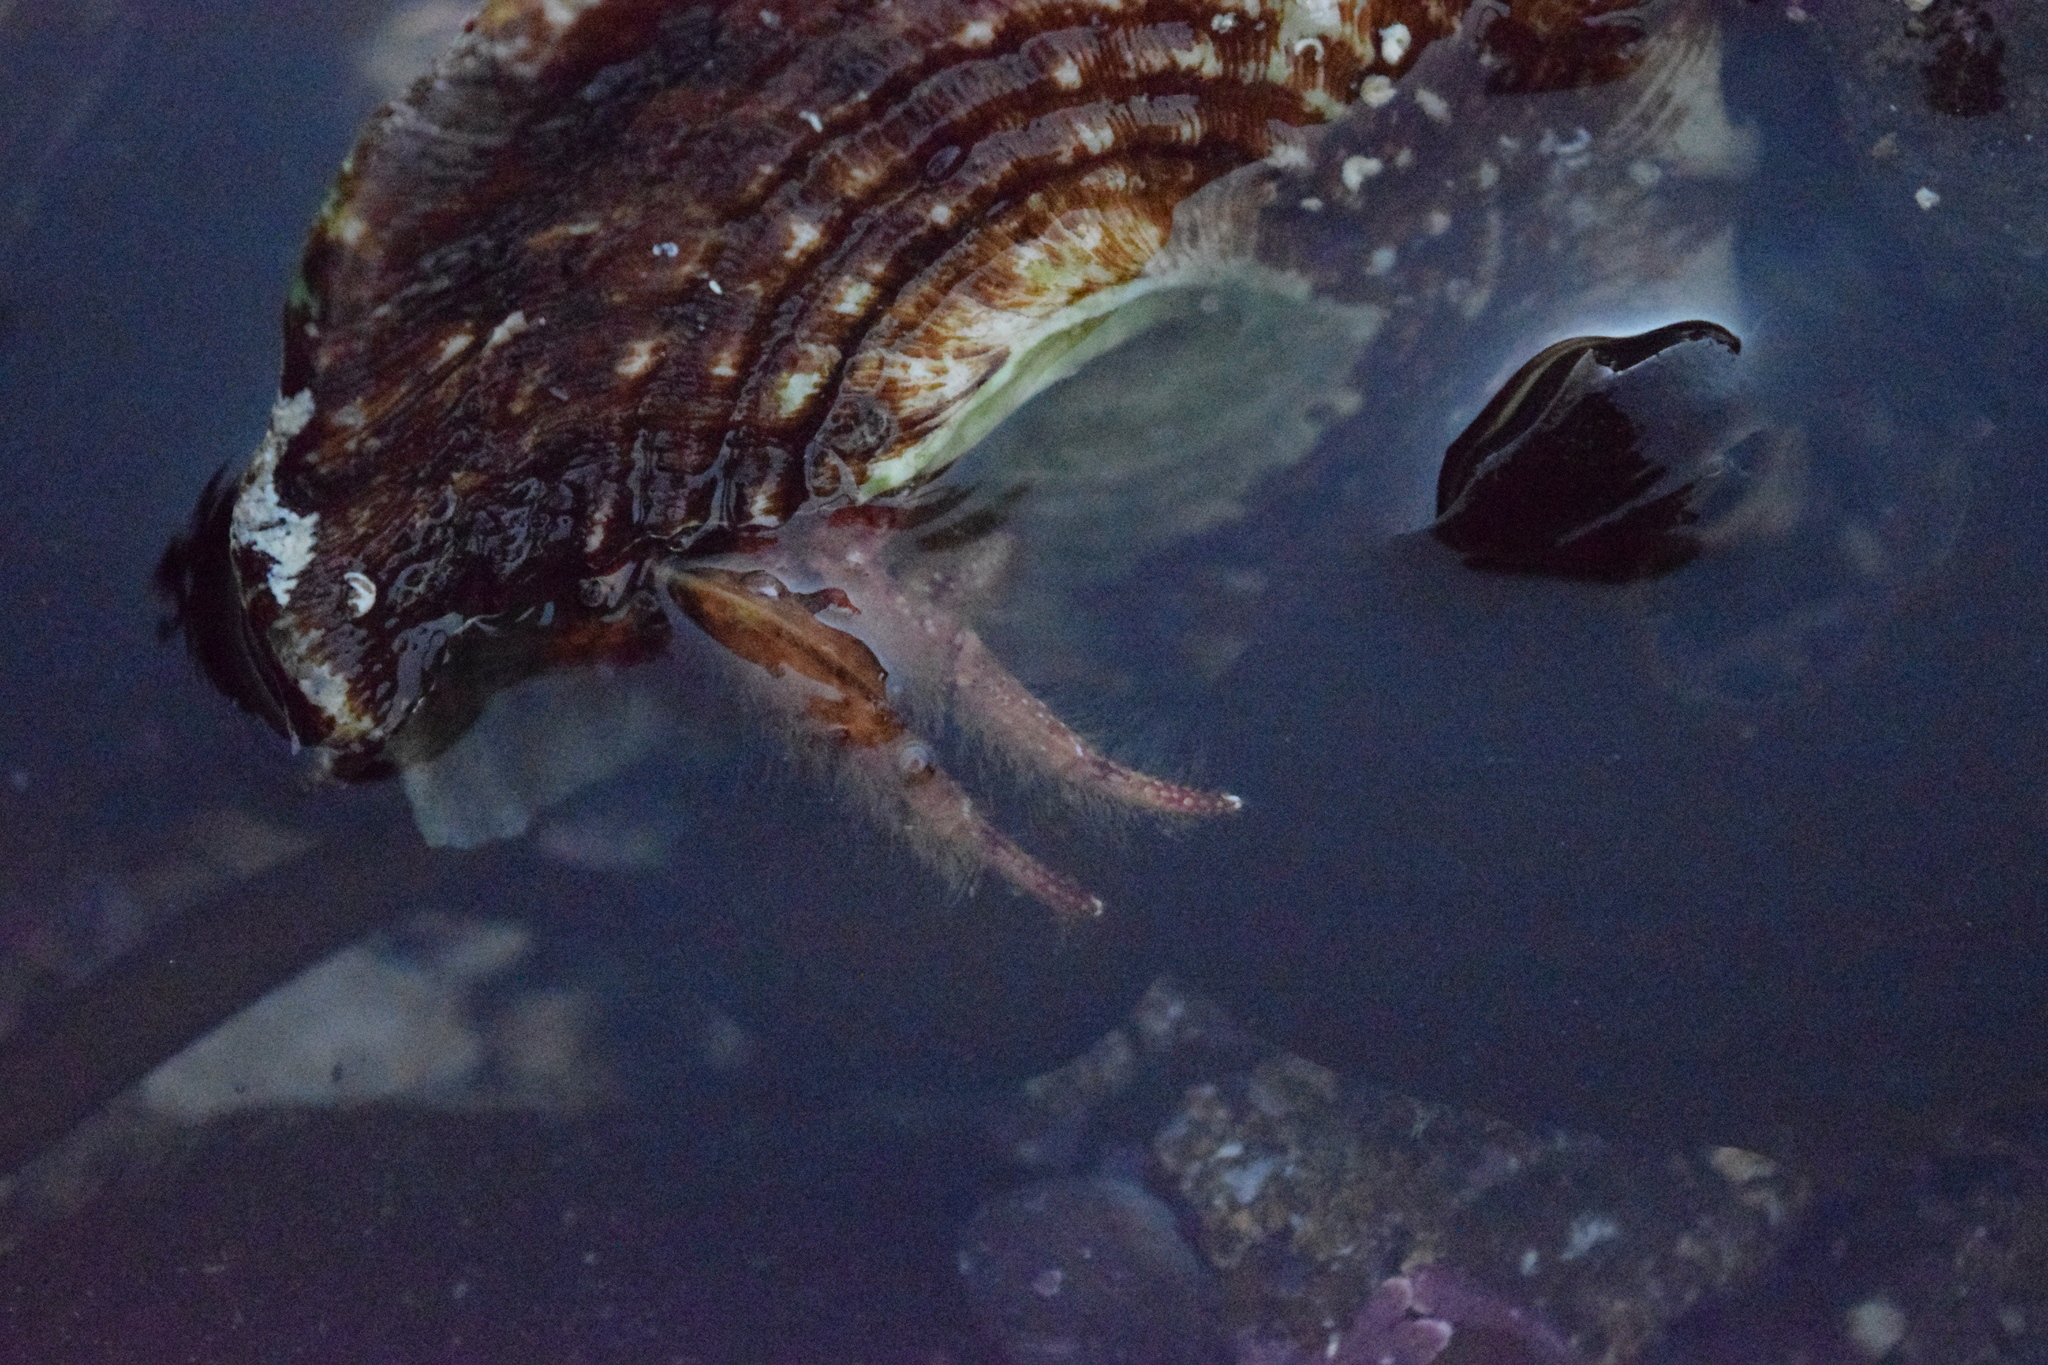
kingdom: Animalia
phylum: Arthropoda
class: Malacostraca
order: Decapoda
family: Diogenidae
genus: Paguristes
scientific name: Paguristes ulreyi
